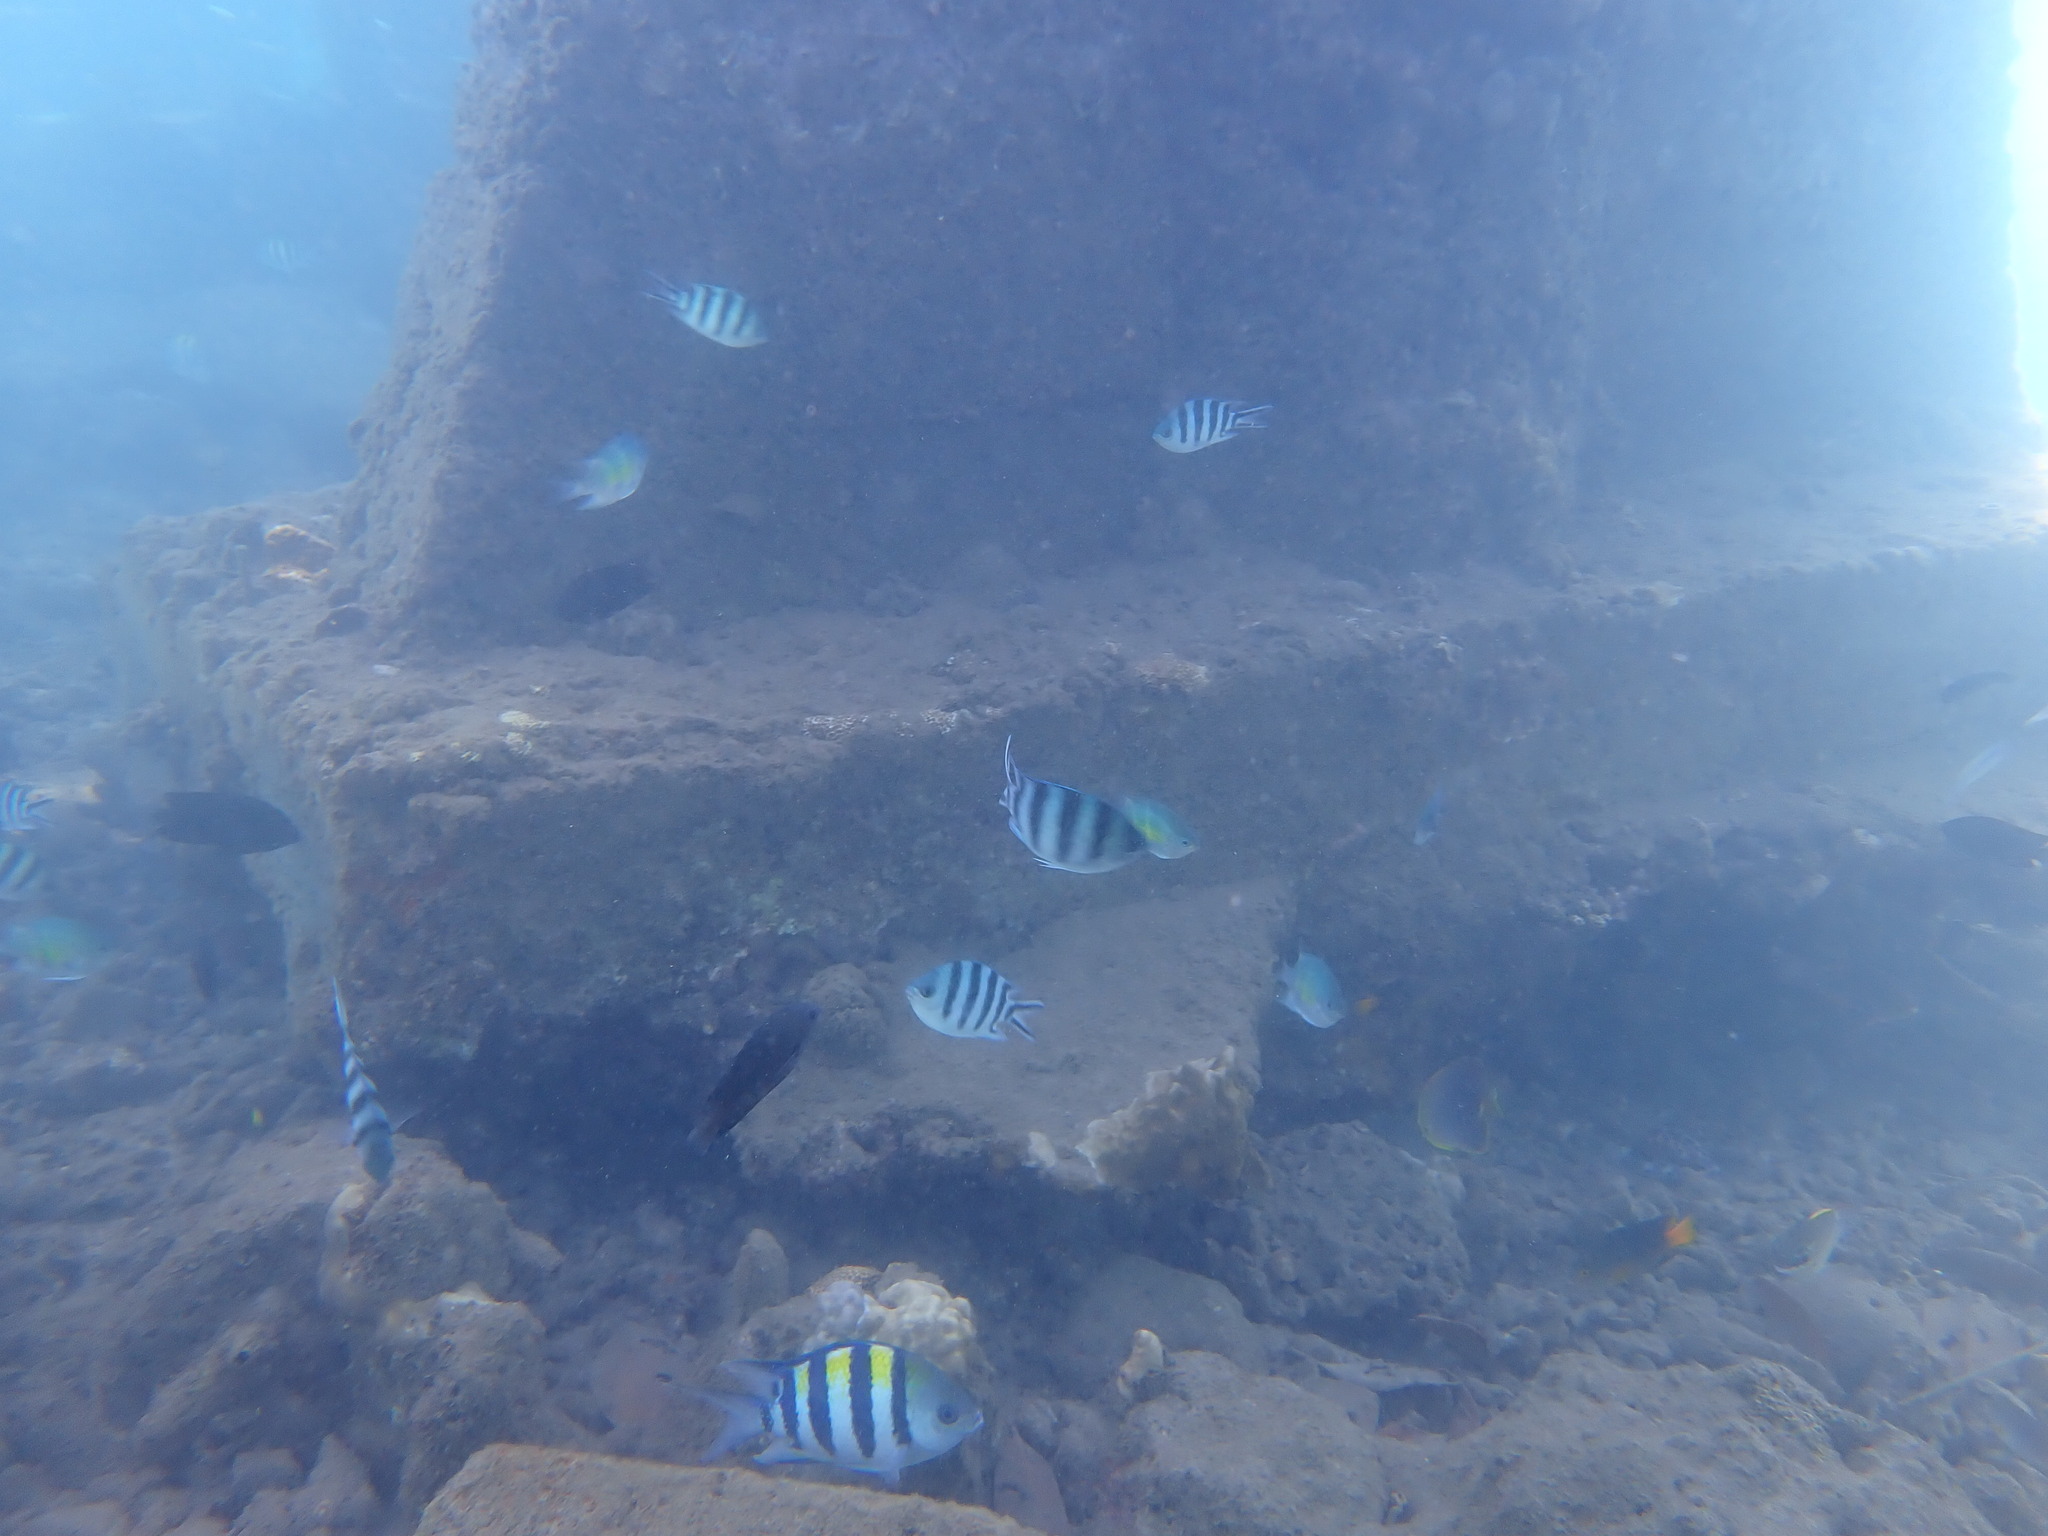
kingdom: Animalia
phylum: Chordata
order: Perciformes
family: Pomacentridae
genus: Abudefduf
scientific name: Abudefduf sexfasciatus
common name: Scissortail sergeant
